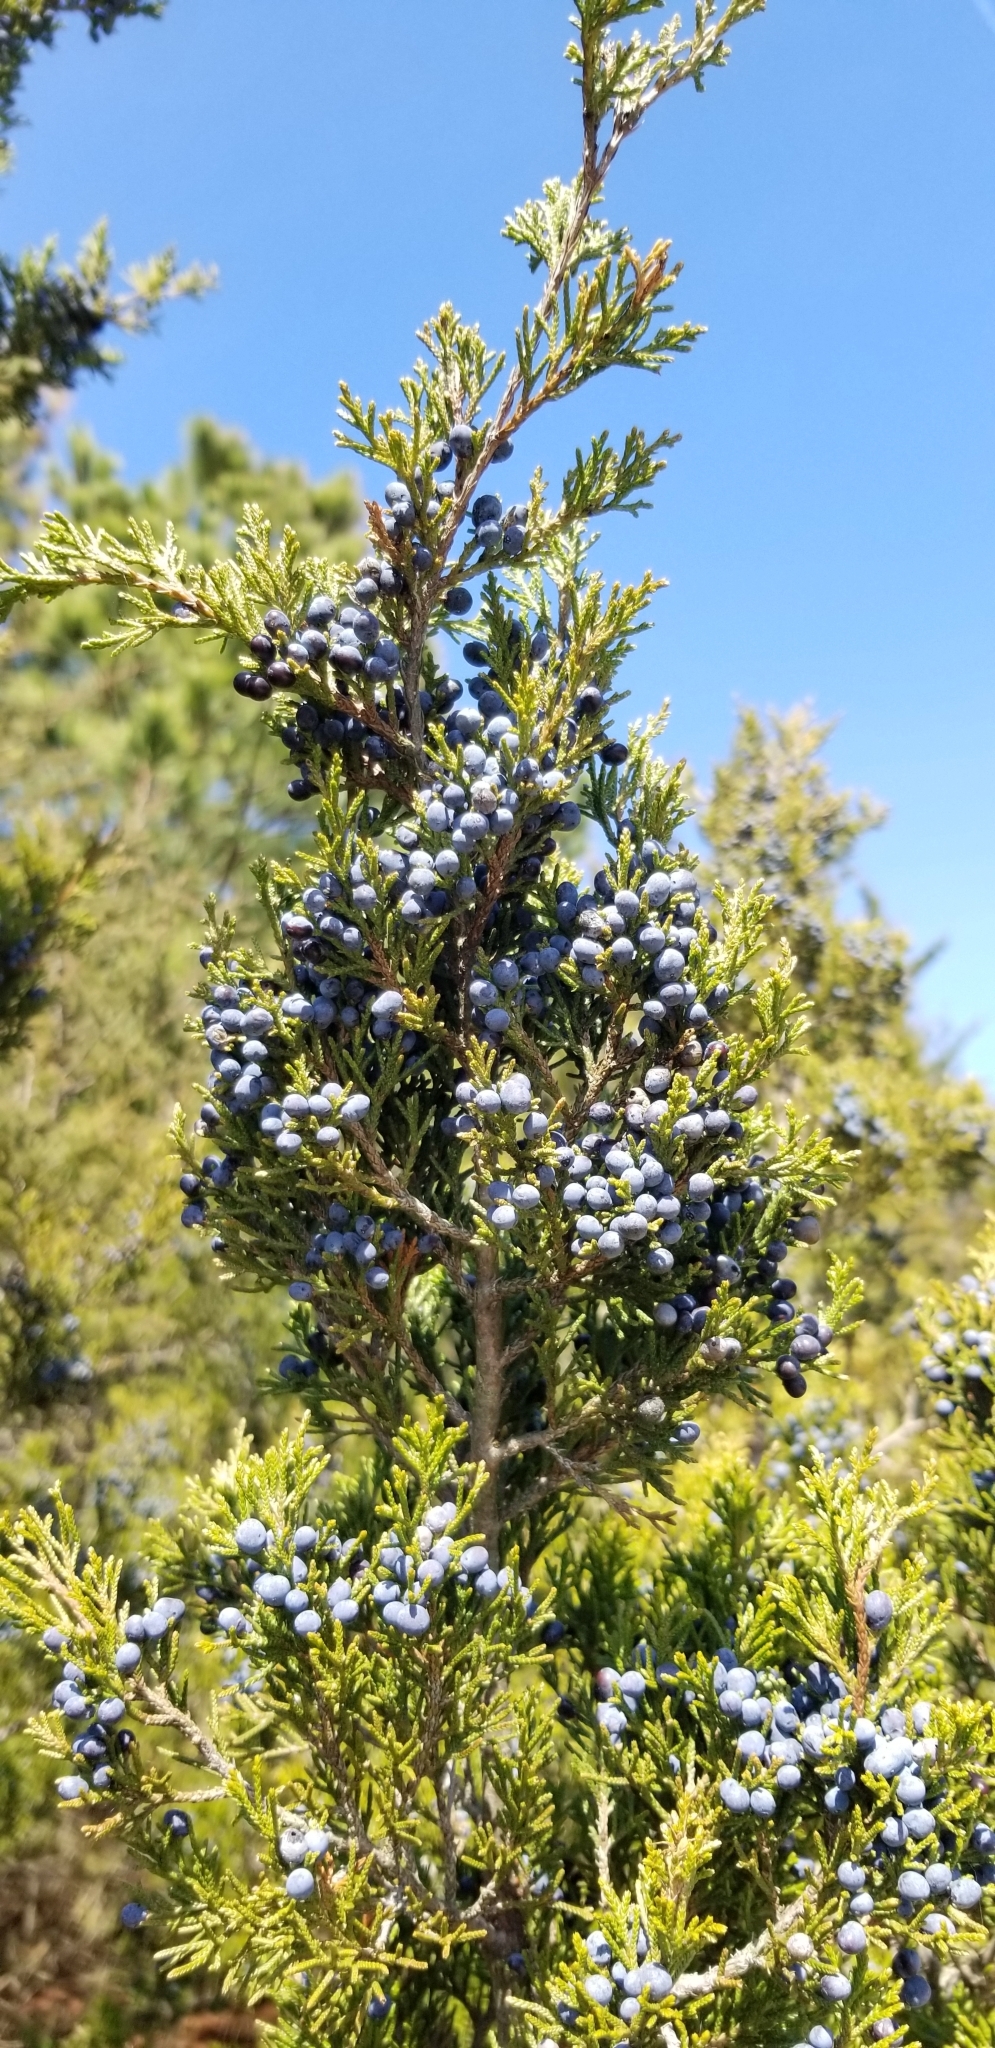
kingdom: Plantae
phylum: Tracheophyta
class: Pinopsida
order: Pinales
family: Cupressaceae
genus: Juniperus
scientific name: Juniperus virginiana
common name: Red juniper
